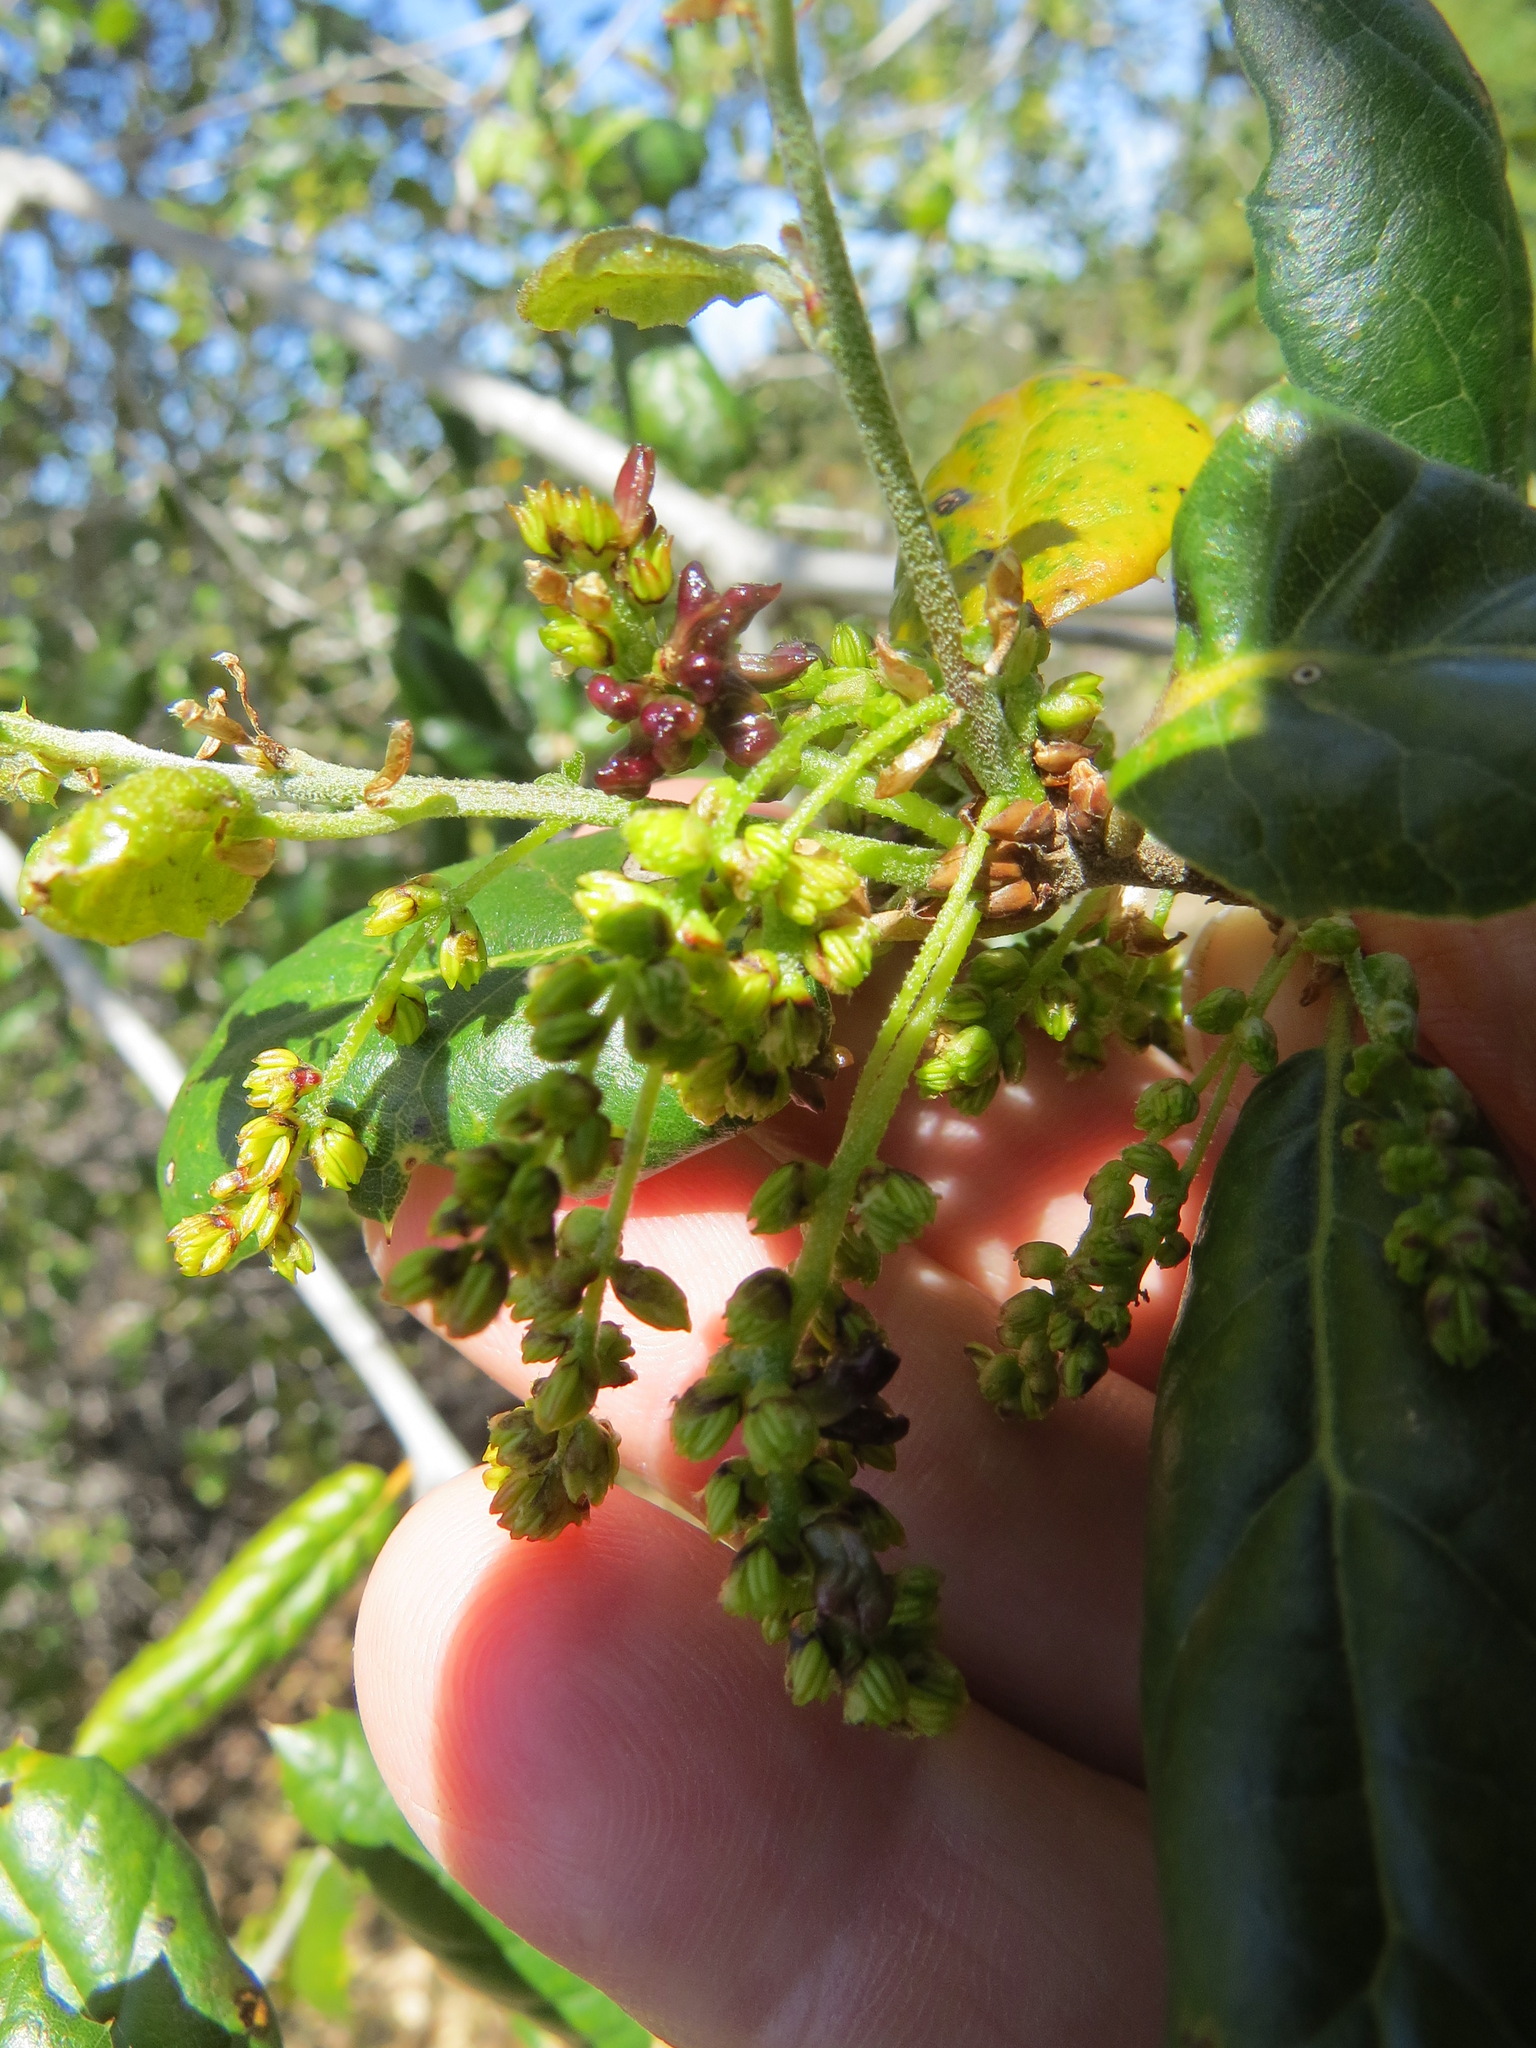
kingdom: Animalia
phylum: Arthropoda
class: Insecta
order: Hymenoptera
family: Cynipidae
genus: Dryocosmus
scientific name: Dryocosmus
